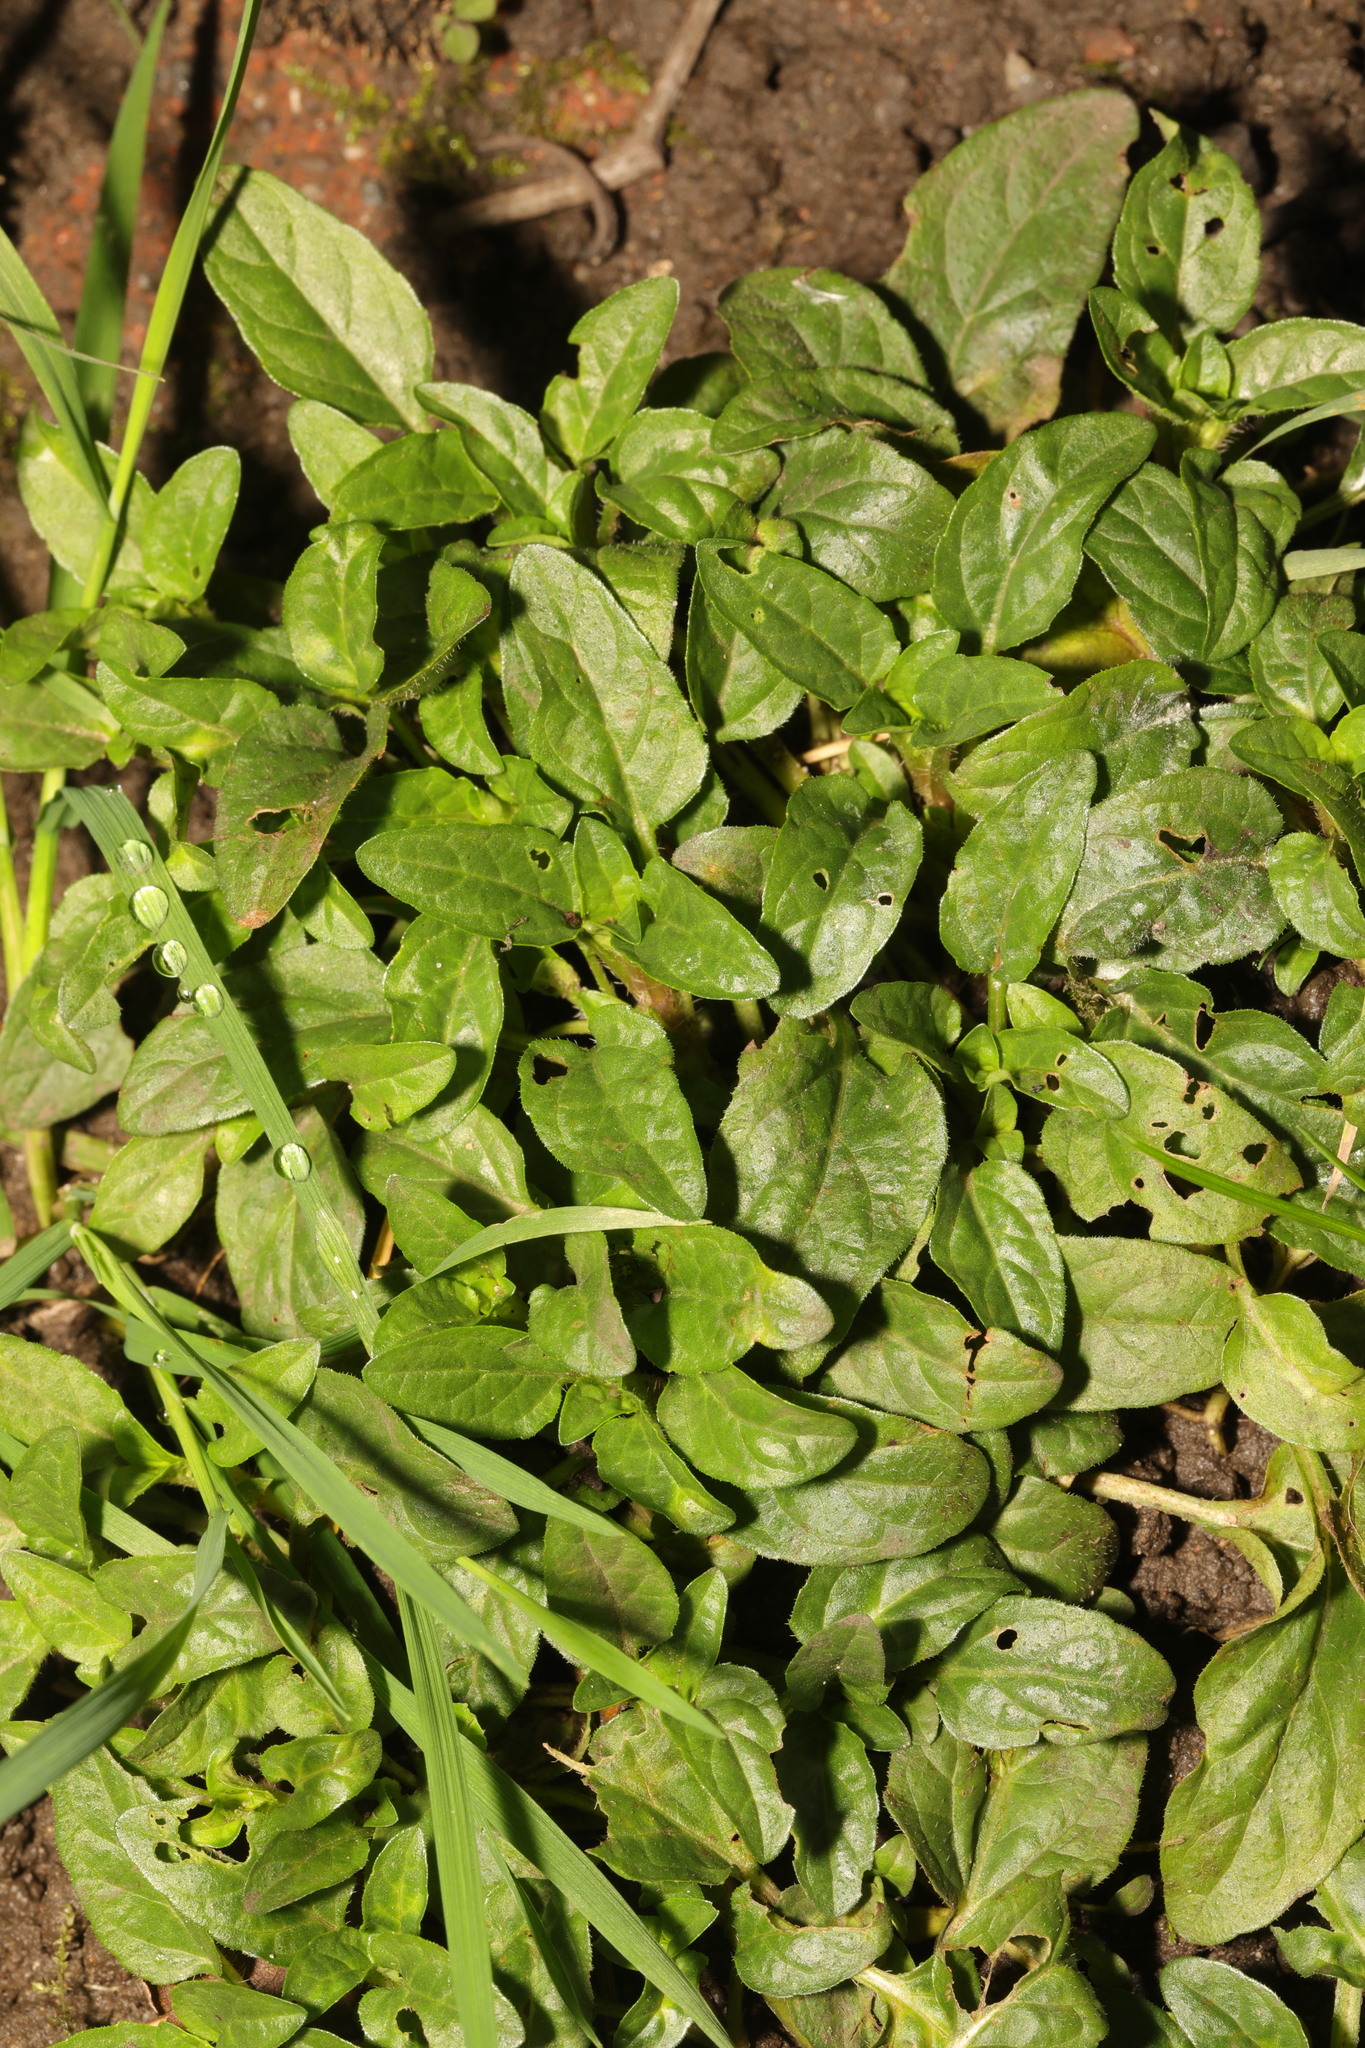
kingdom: Plantae
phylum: Tracheophyta
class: Magnoliopsida
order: Lamiales
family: Lamiaceae
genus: Prunella
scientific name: Prunella vulgaris
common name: Heal-all
